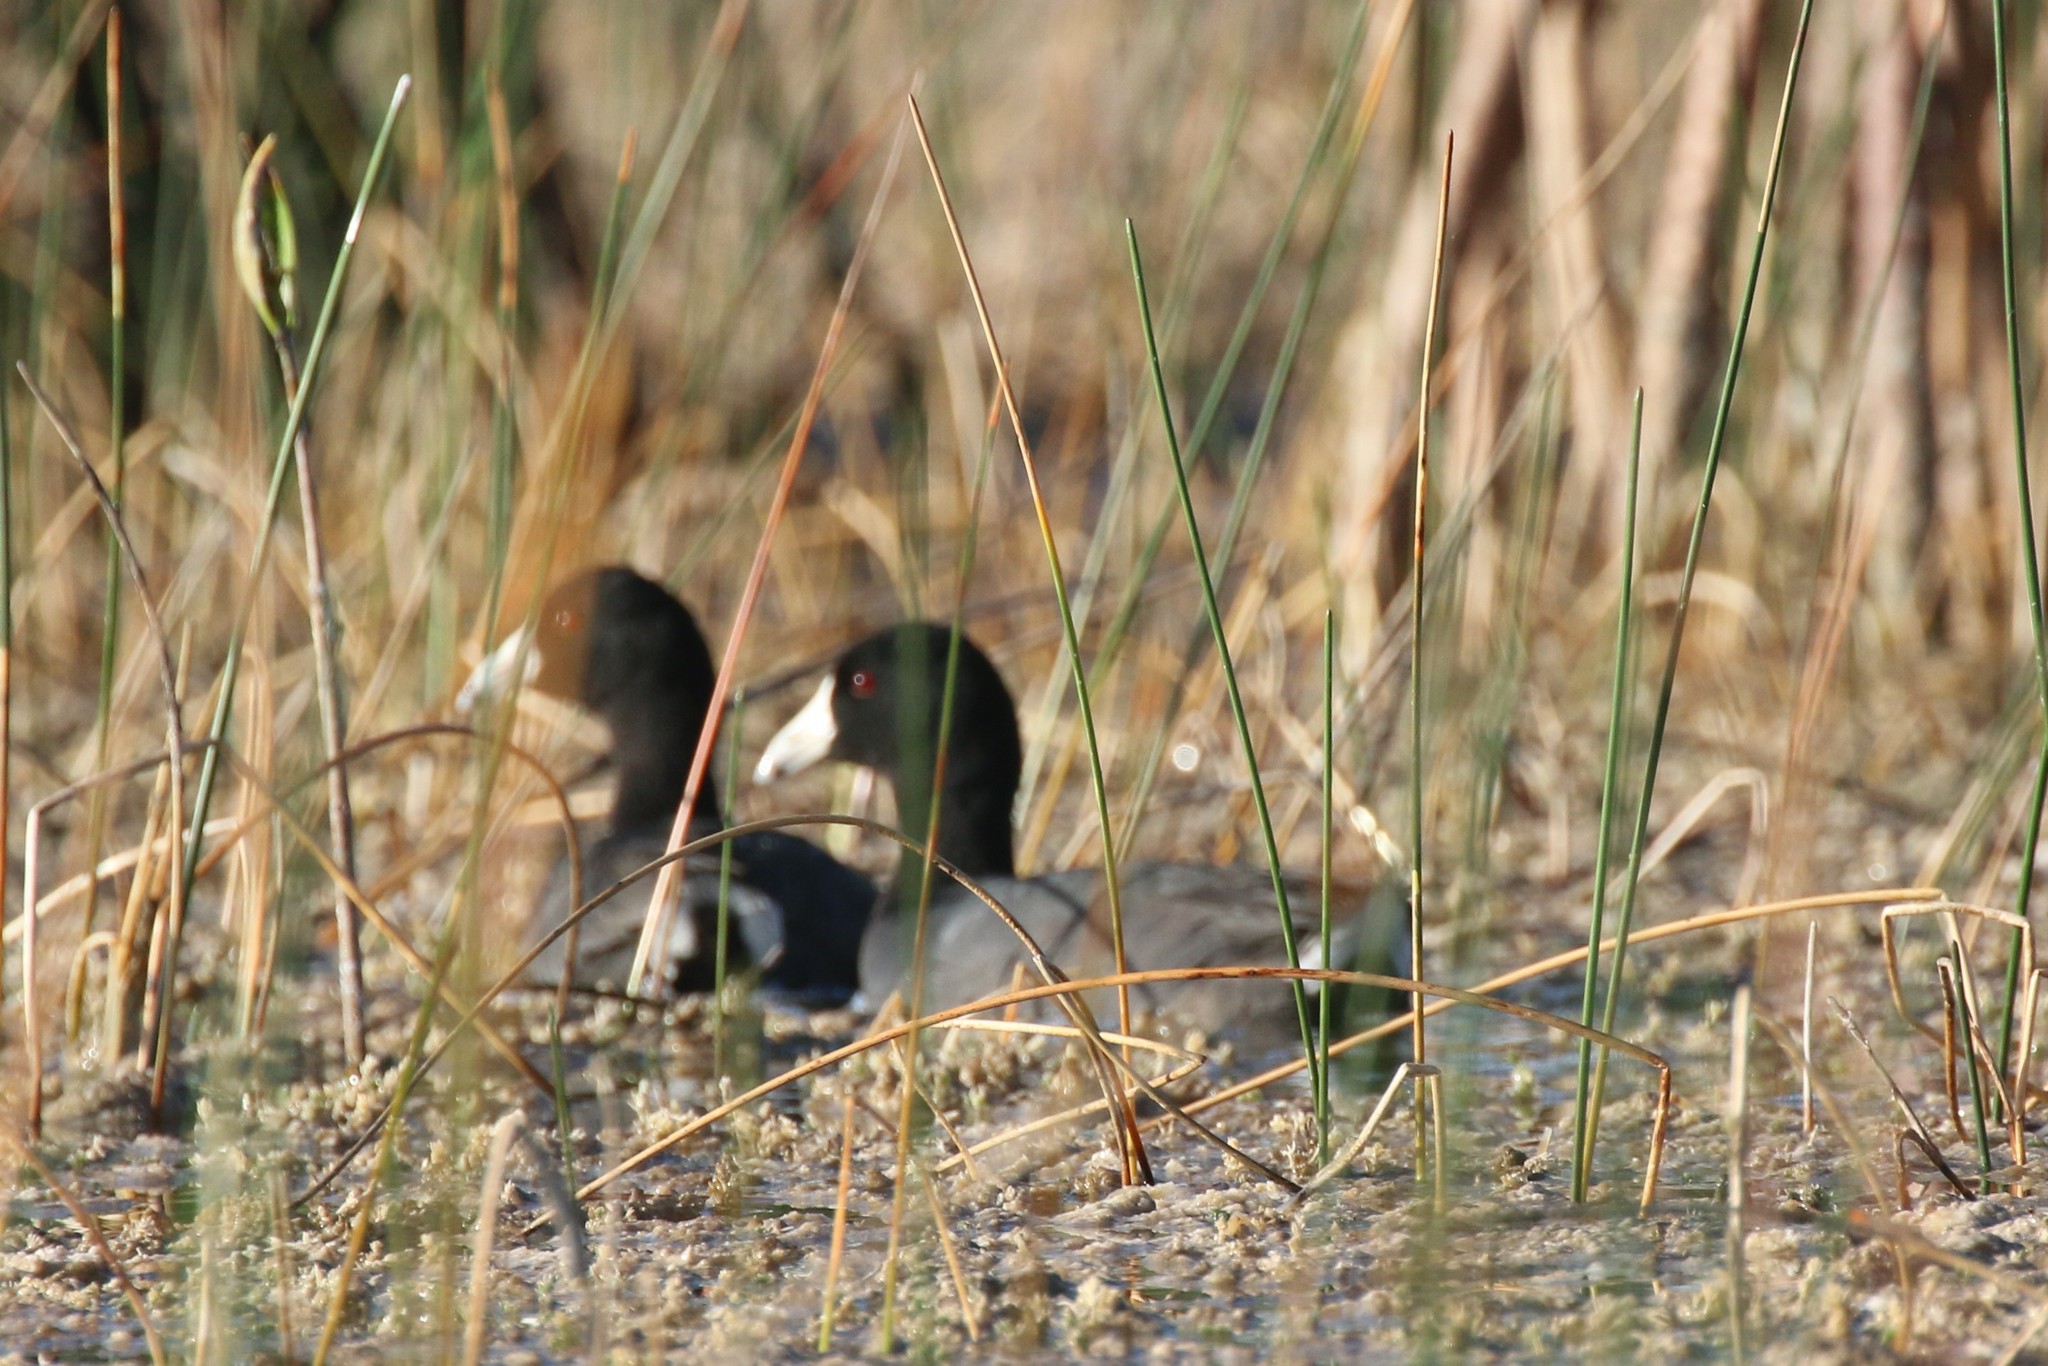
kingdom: Animalia
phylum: Chordata
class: Aves
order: Gruiformes
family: Rallidae
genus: Fulica
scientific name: Fulica americana
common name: American coot
